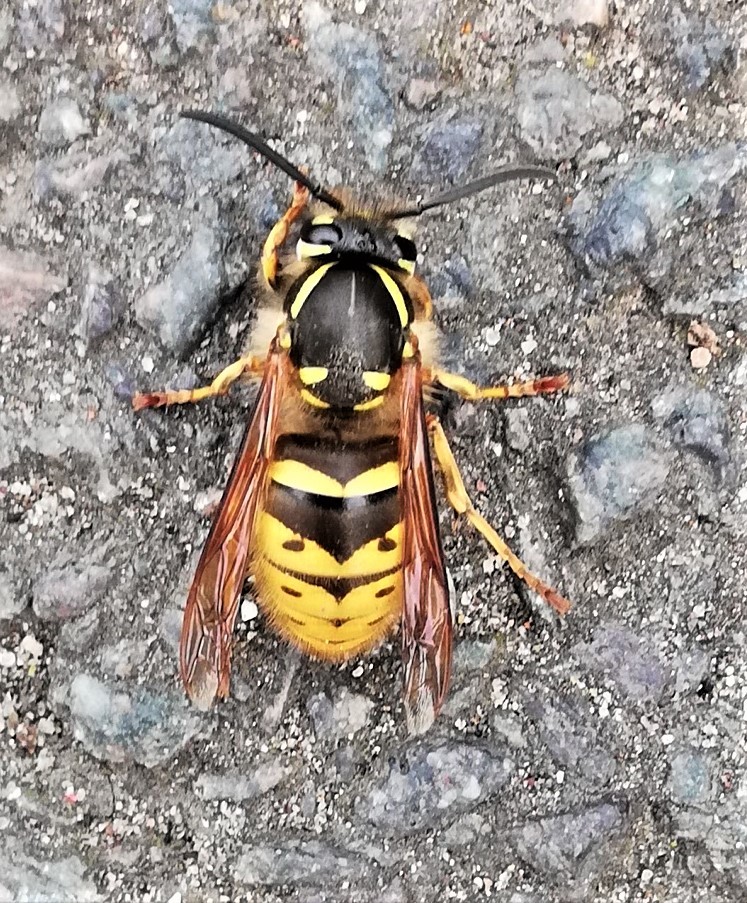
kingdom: Animalia
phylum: Arthropoda
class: Insecta
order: Hymenoptera
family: Vespidae
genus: Vespula
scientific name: Vespula vulgaris
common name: Common wasp
